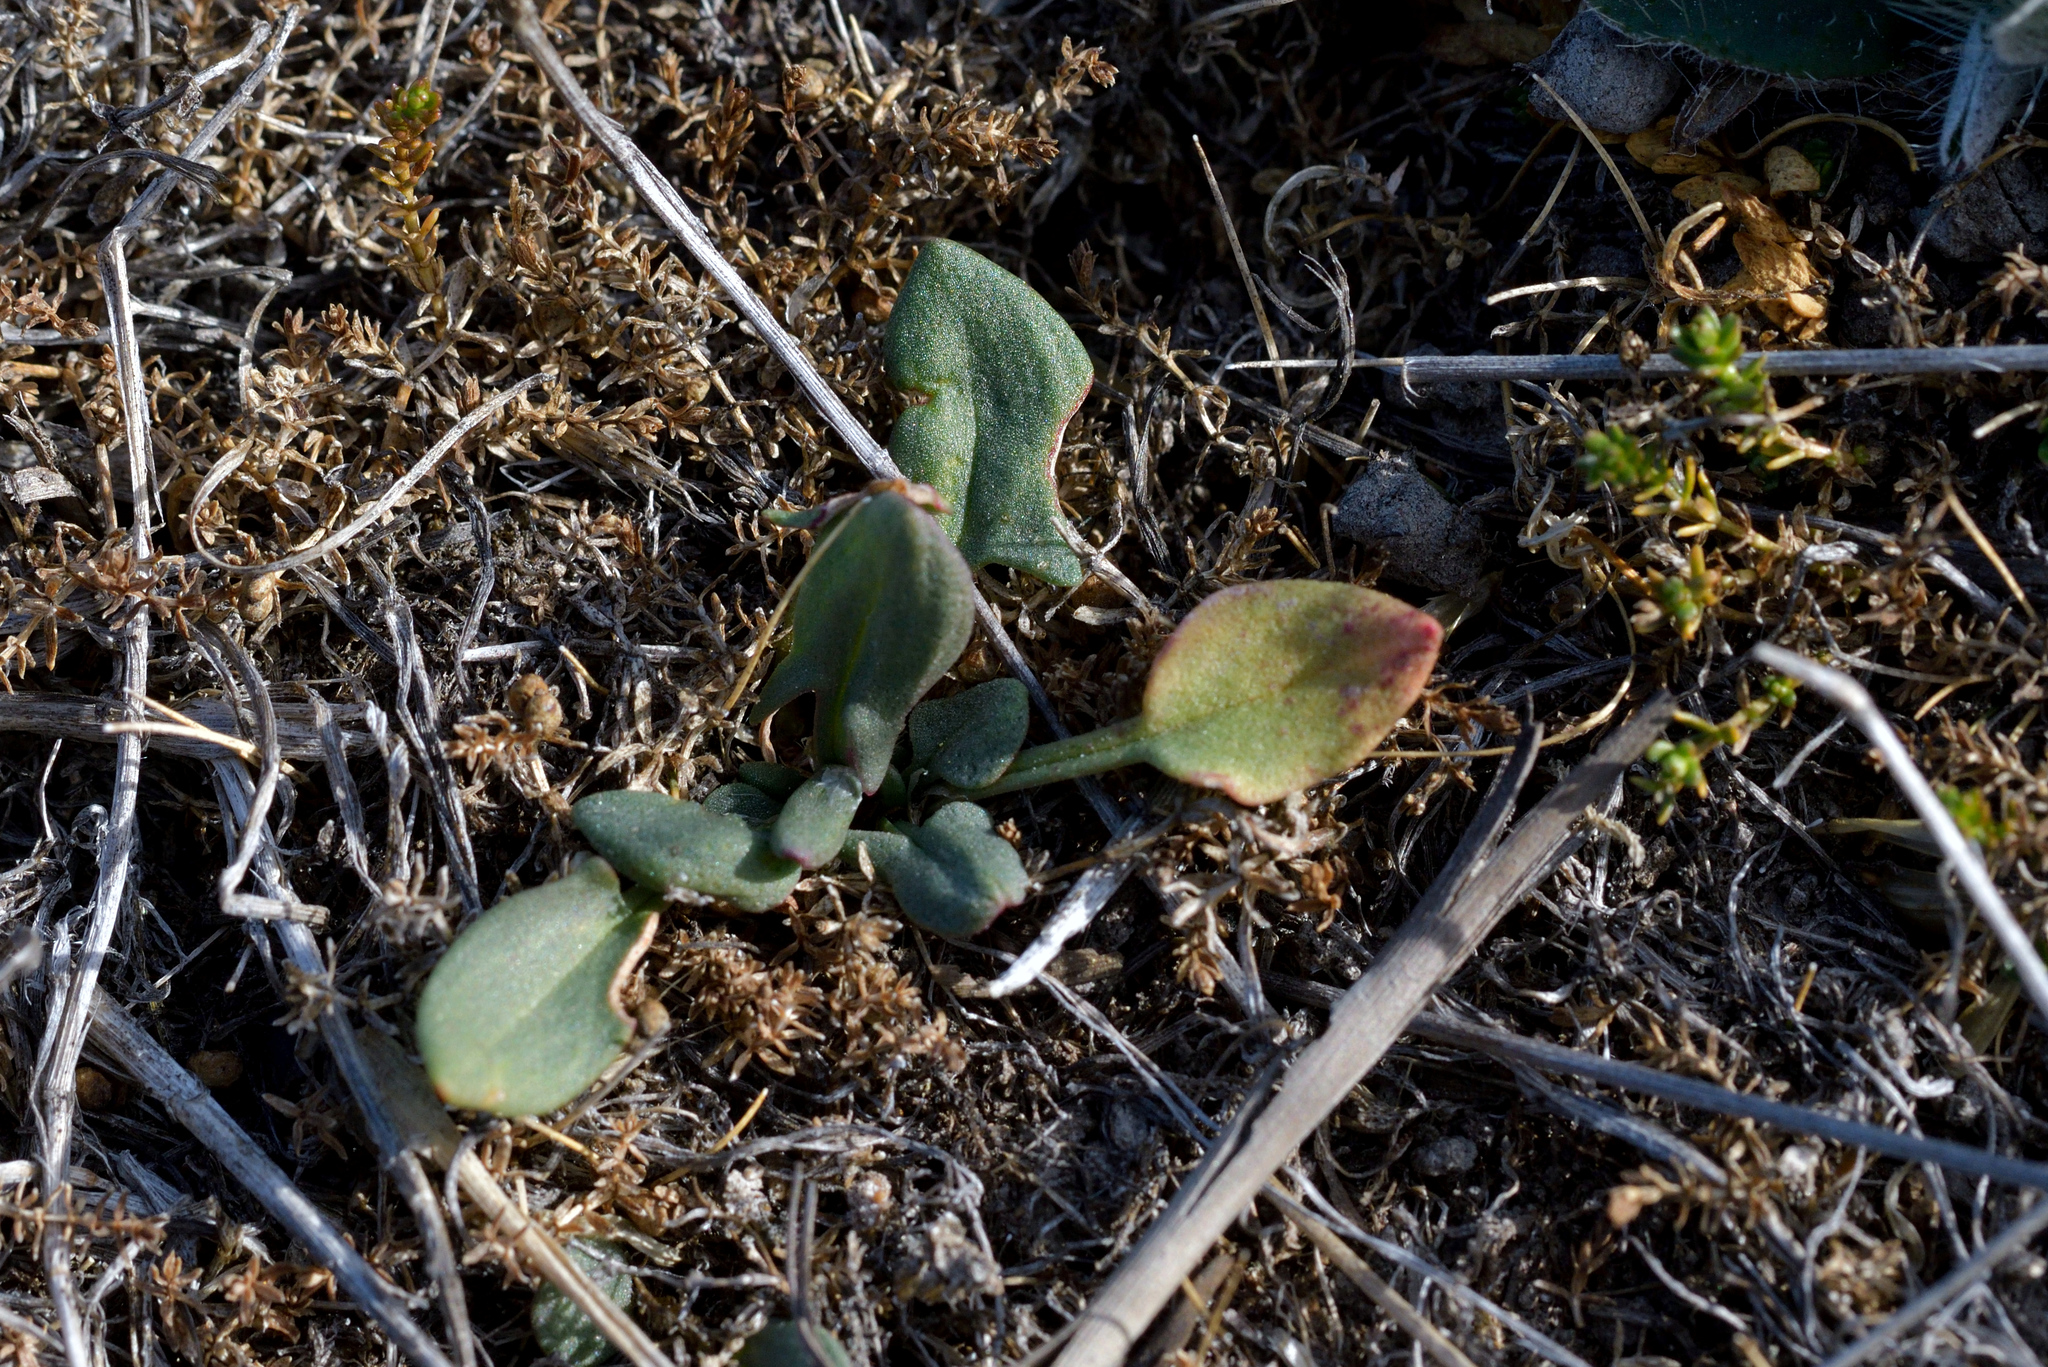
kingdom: Plantae
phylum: Tracheophyta
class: Magnoliopsida
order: Caryophyllales
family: Polygonaceae
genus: Rumex
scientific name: Rumex acetosella
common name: Common sheep sorrel
